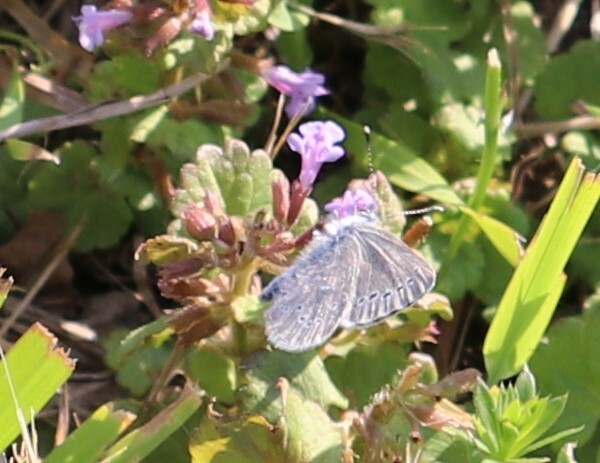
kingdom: Animalia
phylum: Arthropoda
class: Insecta
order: Lepidoptera
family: Lycaenidae
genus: Glaucopsyche
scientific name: Glaucopsyche lygdamus
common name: Silvery blue
